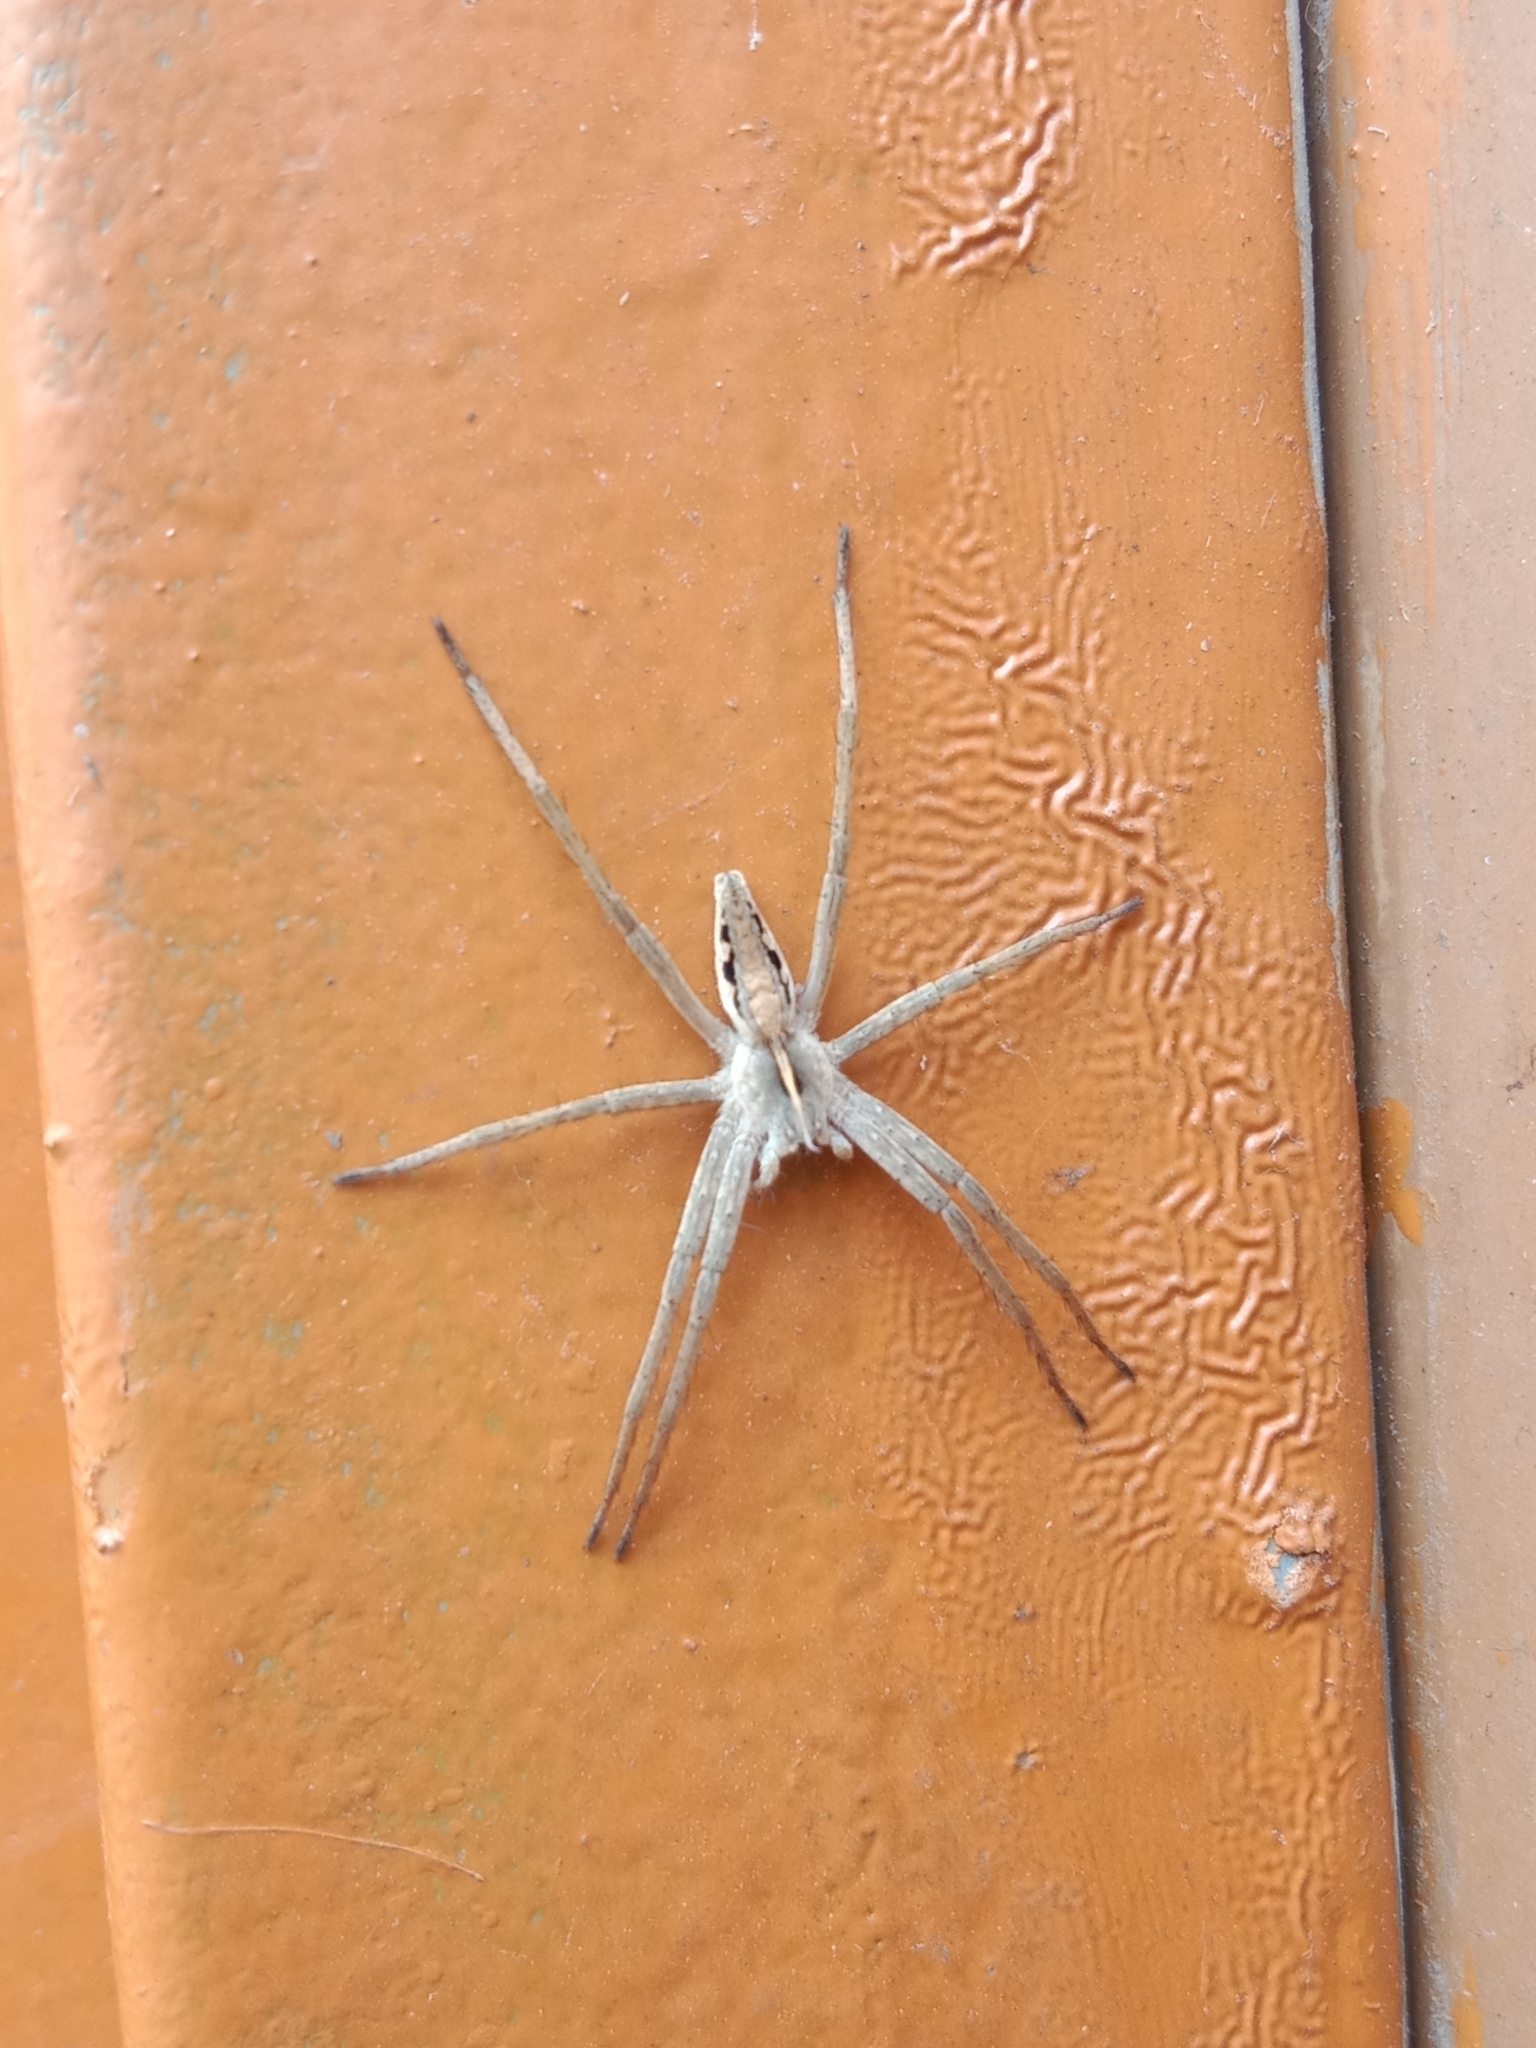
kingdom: Animalia
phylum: Arthropoda
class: Arachnida
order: Araneae
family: Pisauridae
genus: Pisaura
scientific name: Pisaura mirabilis
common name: Tent spider
